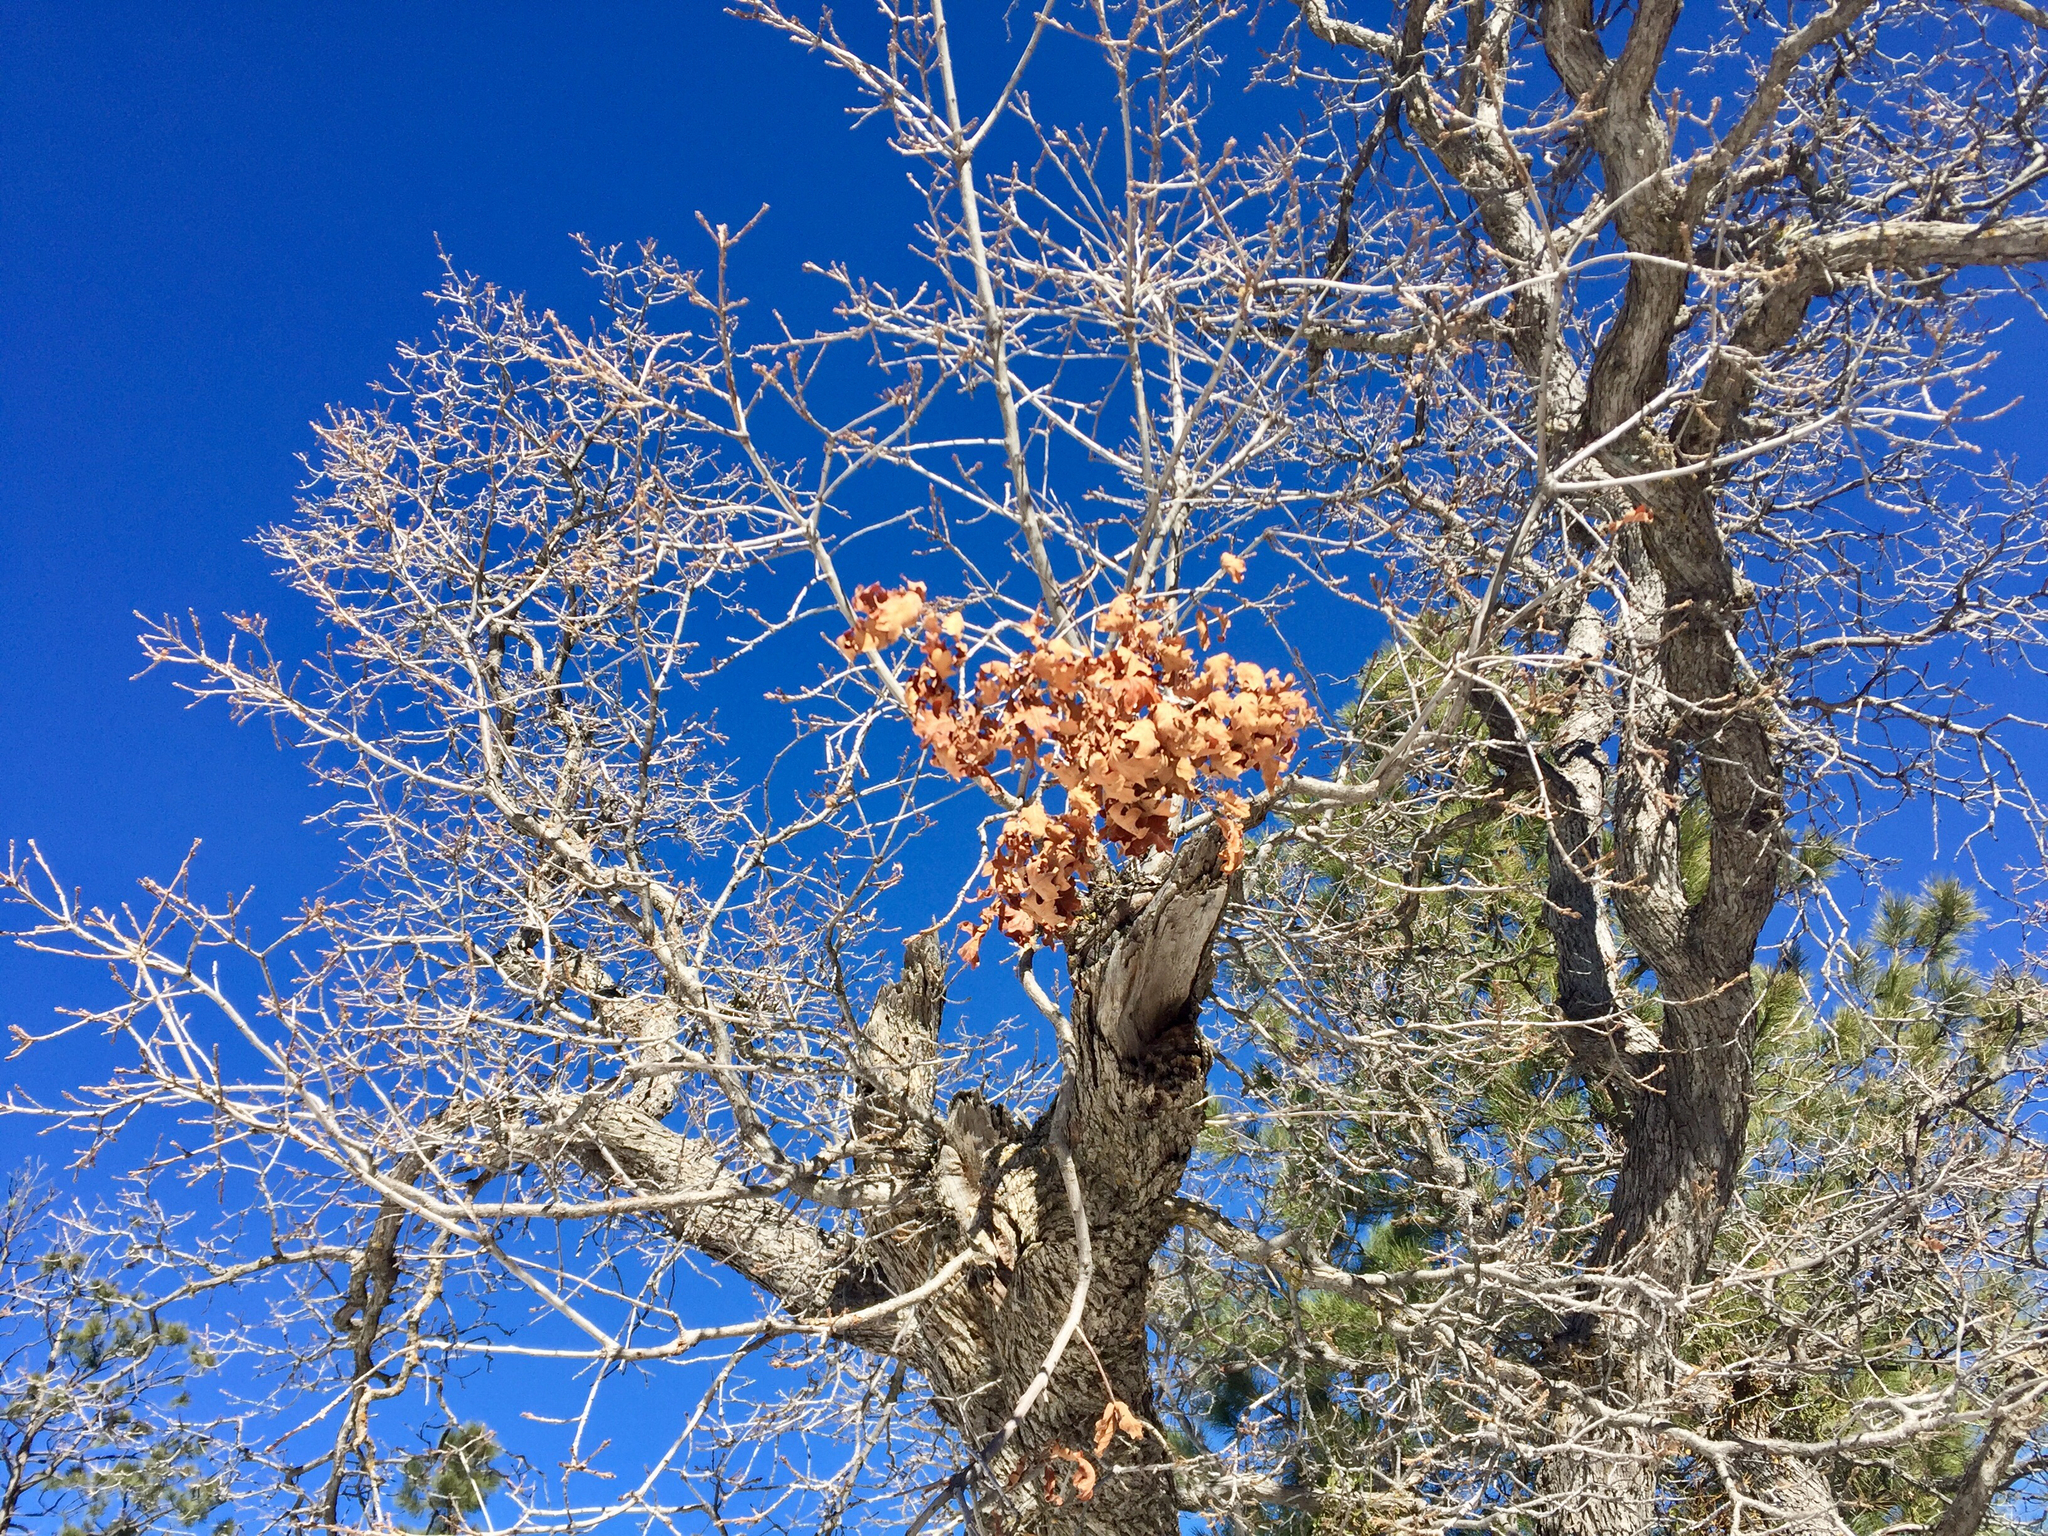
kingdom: Plantae
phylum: Tracheophyta
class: Magnoliopsida
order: Fagales
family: Fagaceae
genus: Quercus
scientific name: Quercus gambelii
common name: Gambel oak
